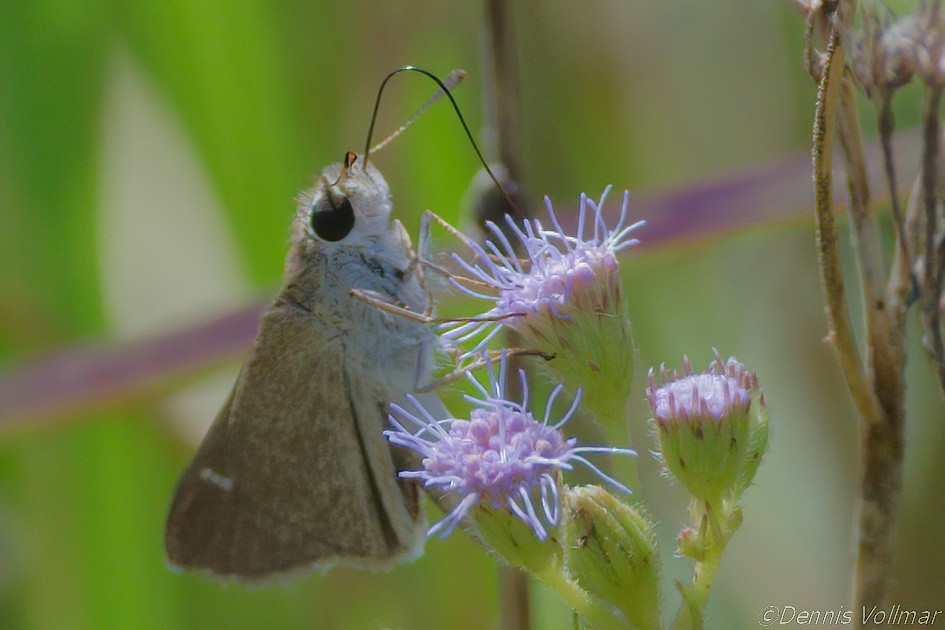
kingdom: Animalia
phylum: Arthropoda
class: Insecta
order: Lepidoptera
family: Hesperiidae
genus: Lerodea
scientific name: Lerodea eufala
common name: Eufala skipper
